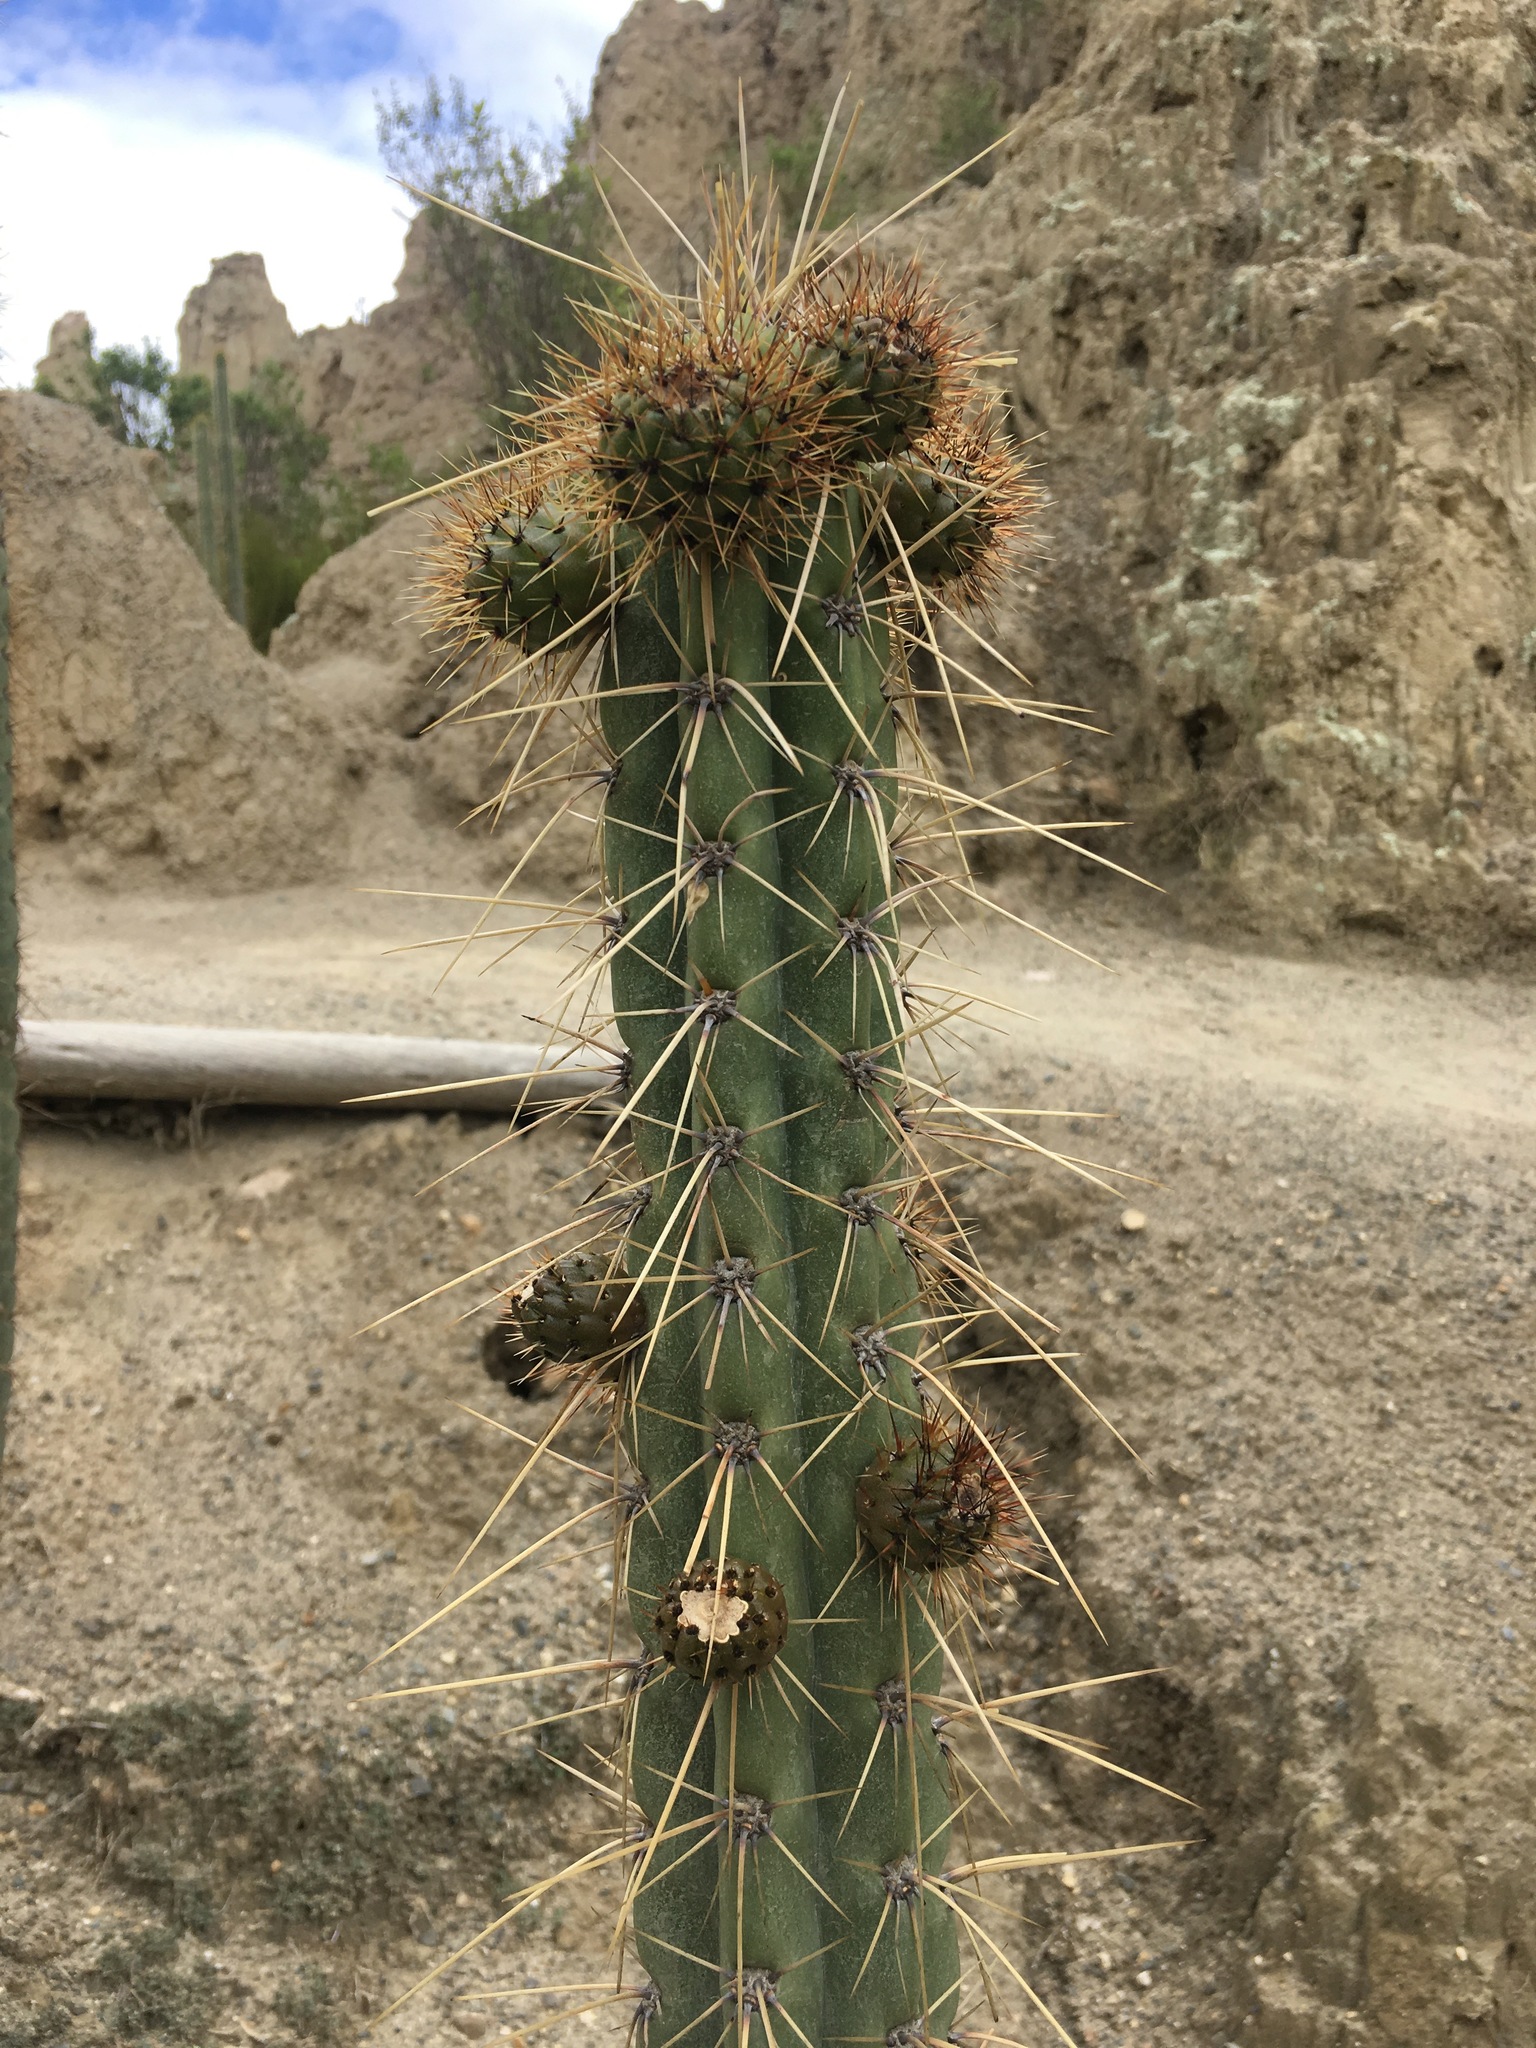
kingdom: Plantae
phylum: Tracheophyta
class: Magnoliopsida
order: Caryophyllales
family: Cactaceae
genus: Corryocactus
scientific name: Corryocactus melanotrichus
